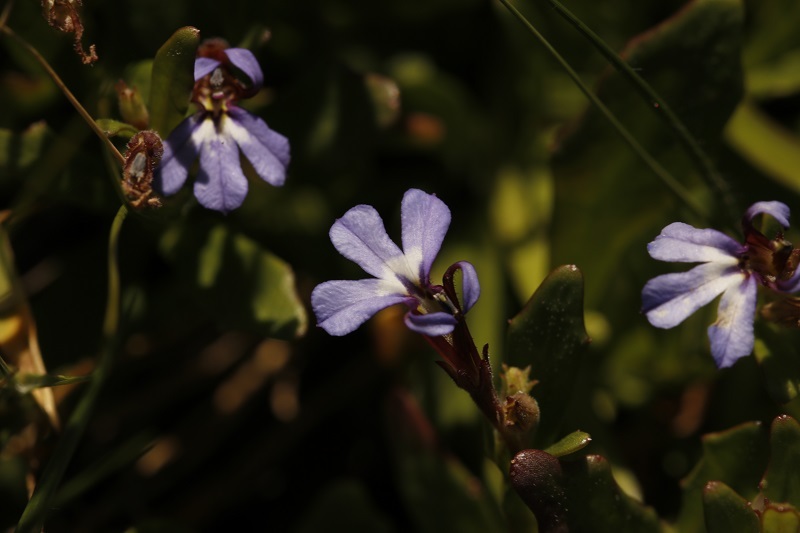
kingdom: Plantae
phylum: Tracheophyta
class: Magnoliopsida
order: Asterales
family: Campanulaceae
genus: Lobelia
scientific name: Lobelia anceps
